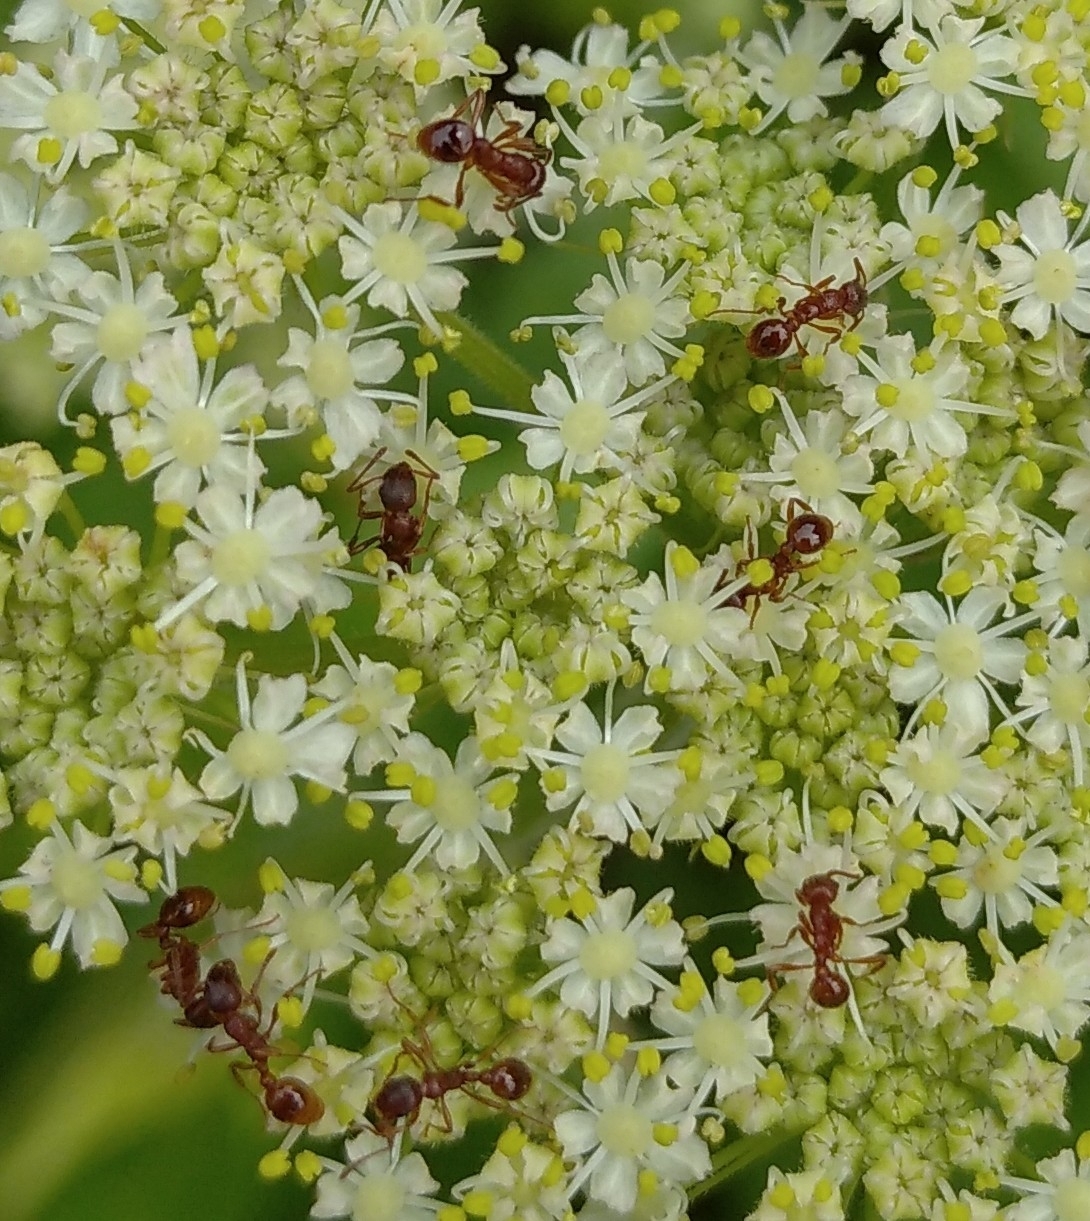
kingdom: Animalia
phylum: Arthropoda
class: Insecta
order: Hymenoptera
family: Formicidae
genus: Myrmica
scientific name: Myrmica rubra
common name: European fire ant
